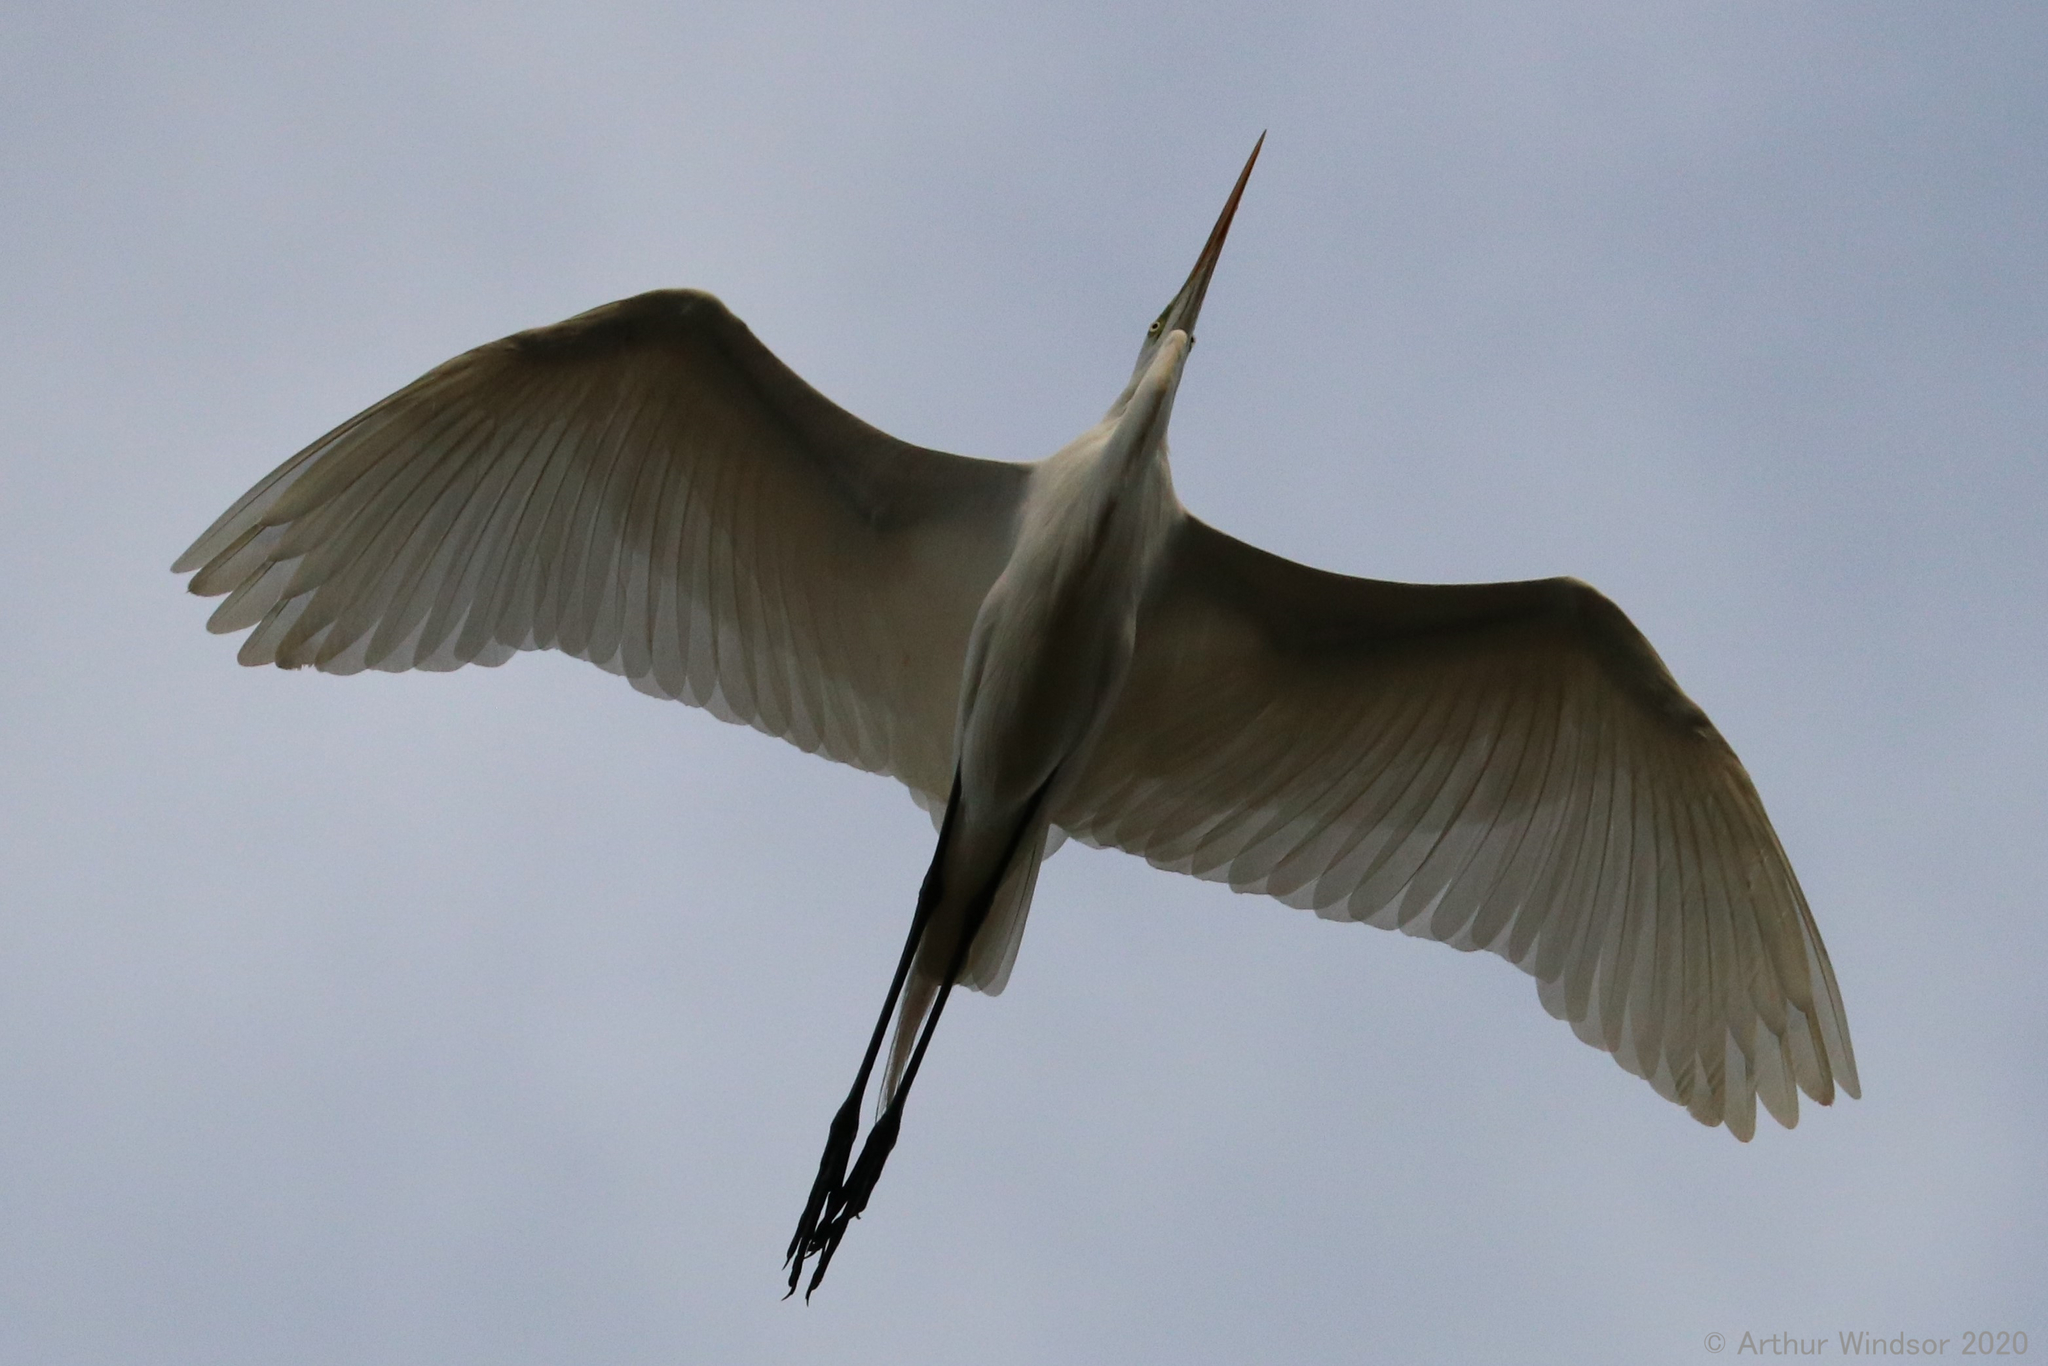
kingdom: Animalia
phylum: Chordata
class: Aves
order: Pelecaniformes
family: Ardeidae
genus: Ardea
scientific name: Ardea alba
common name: Great egret
